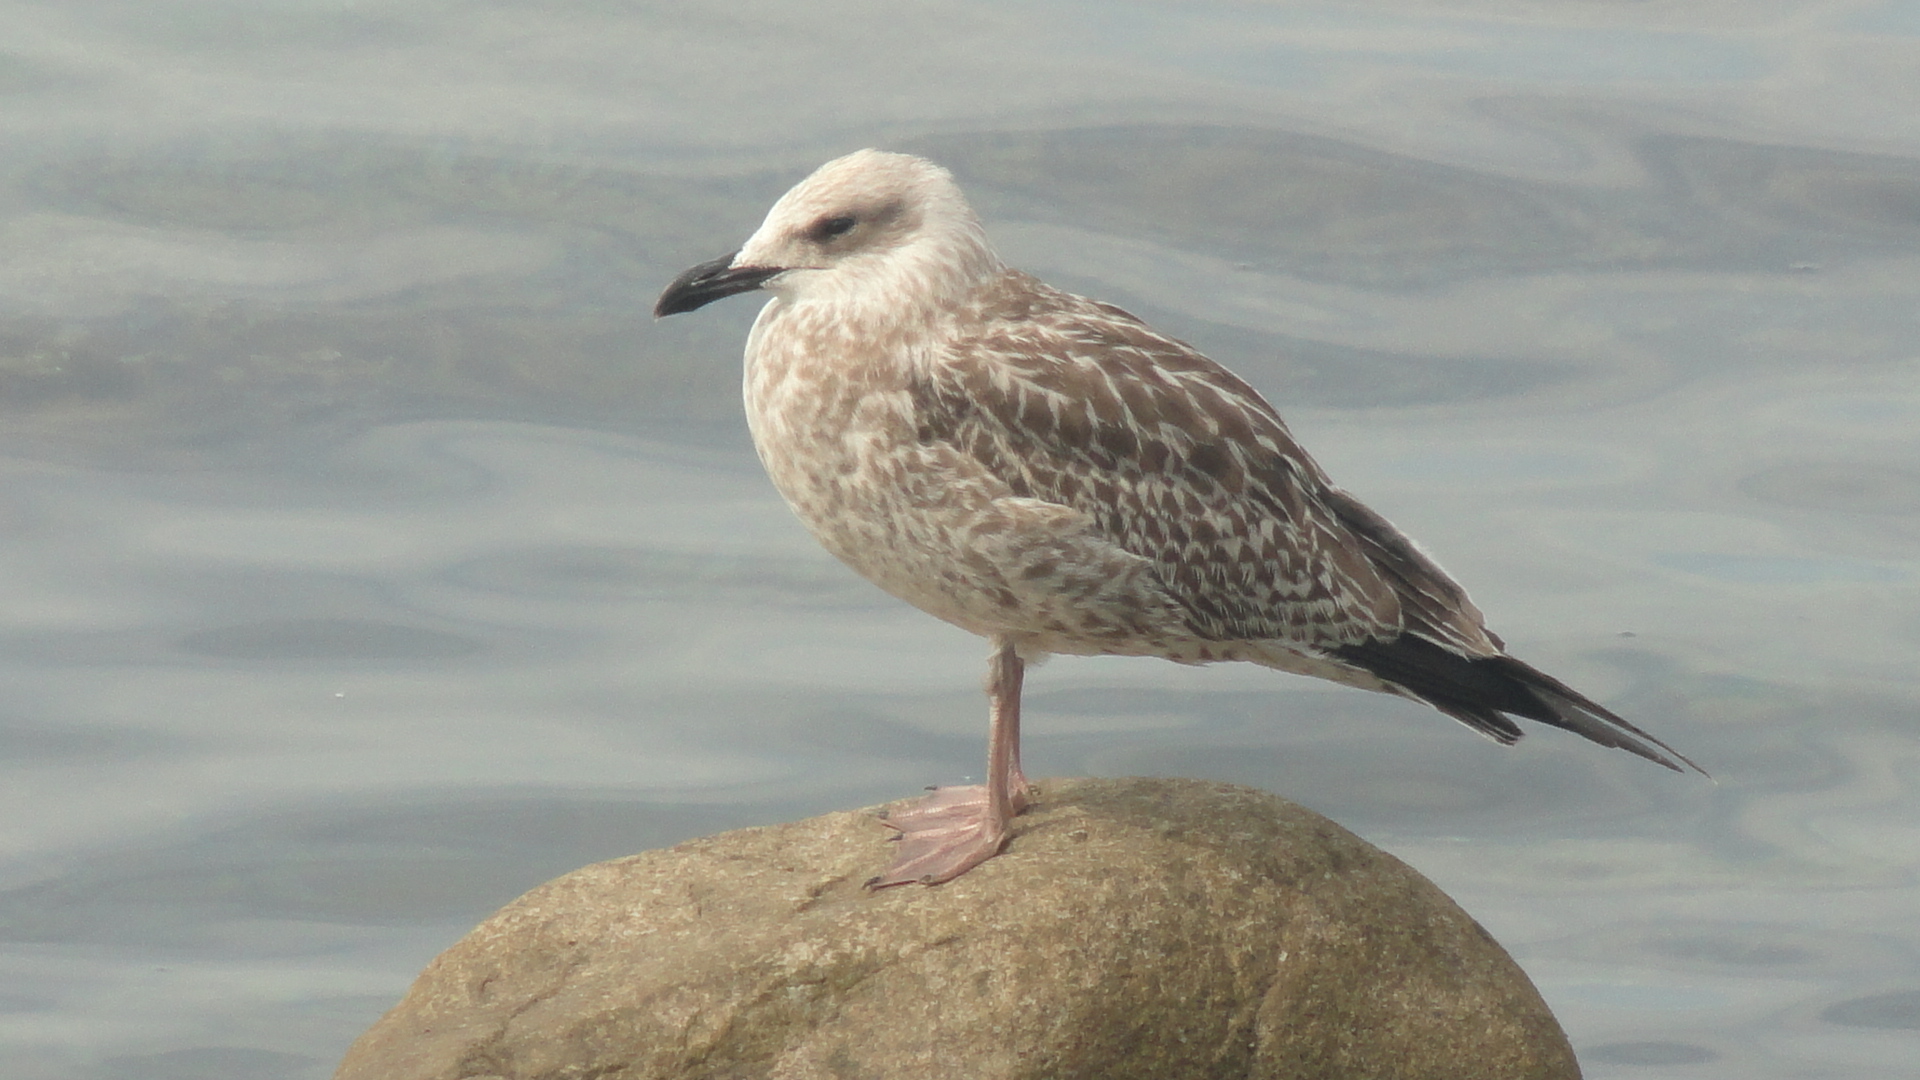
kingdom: Animalia
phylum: Chordata
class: Aves
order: Charadriiformes
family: Laridae
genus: Larus
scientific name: Larus michahellis
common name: Yellow-legged gull
